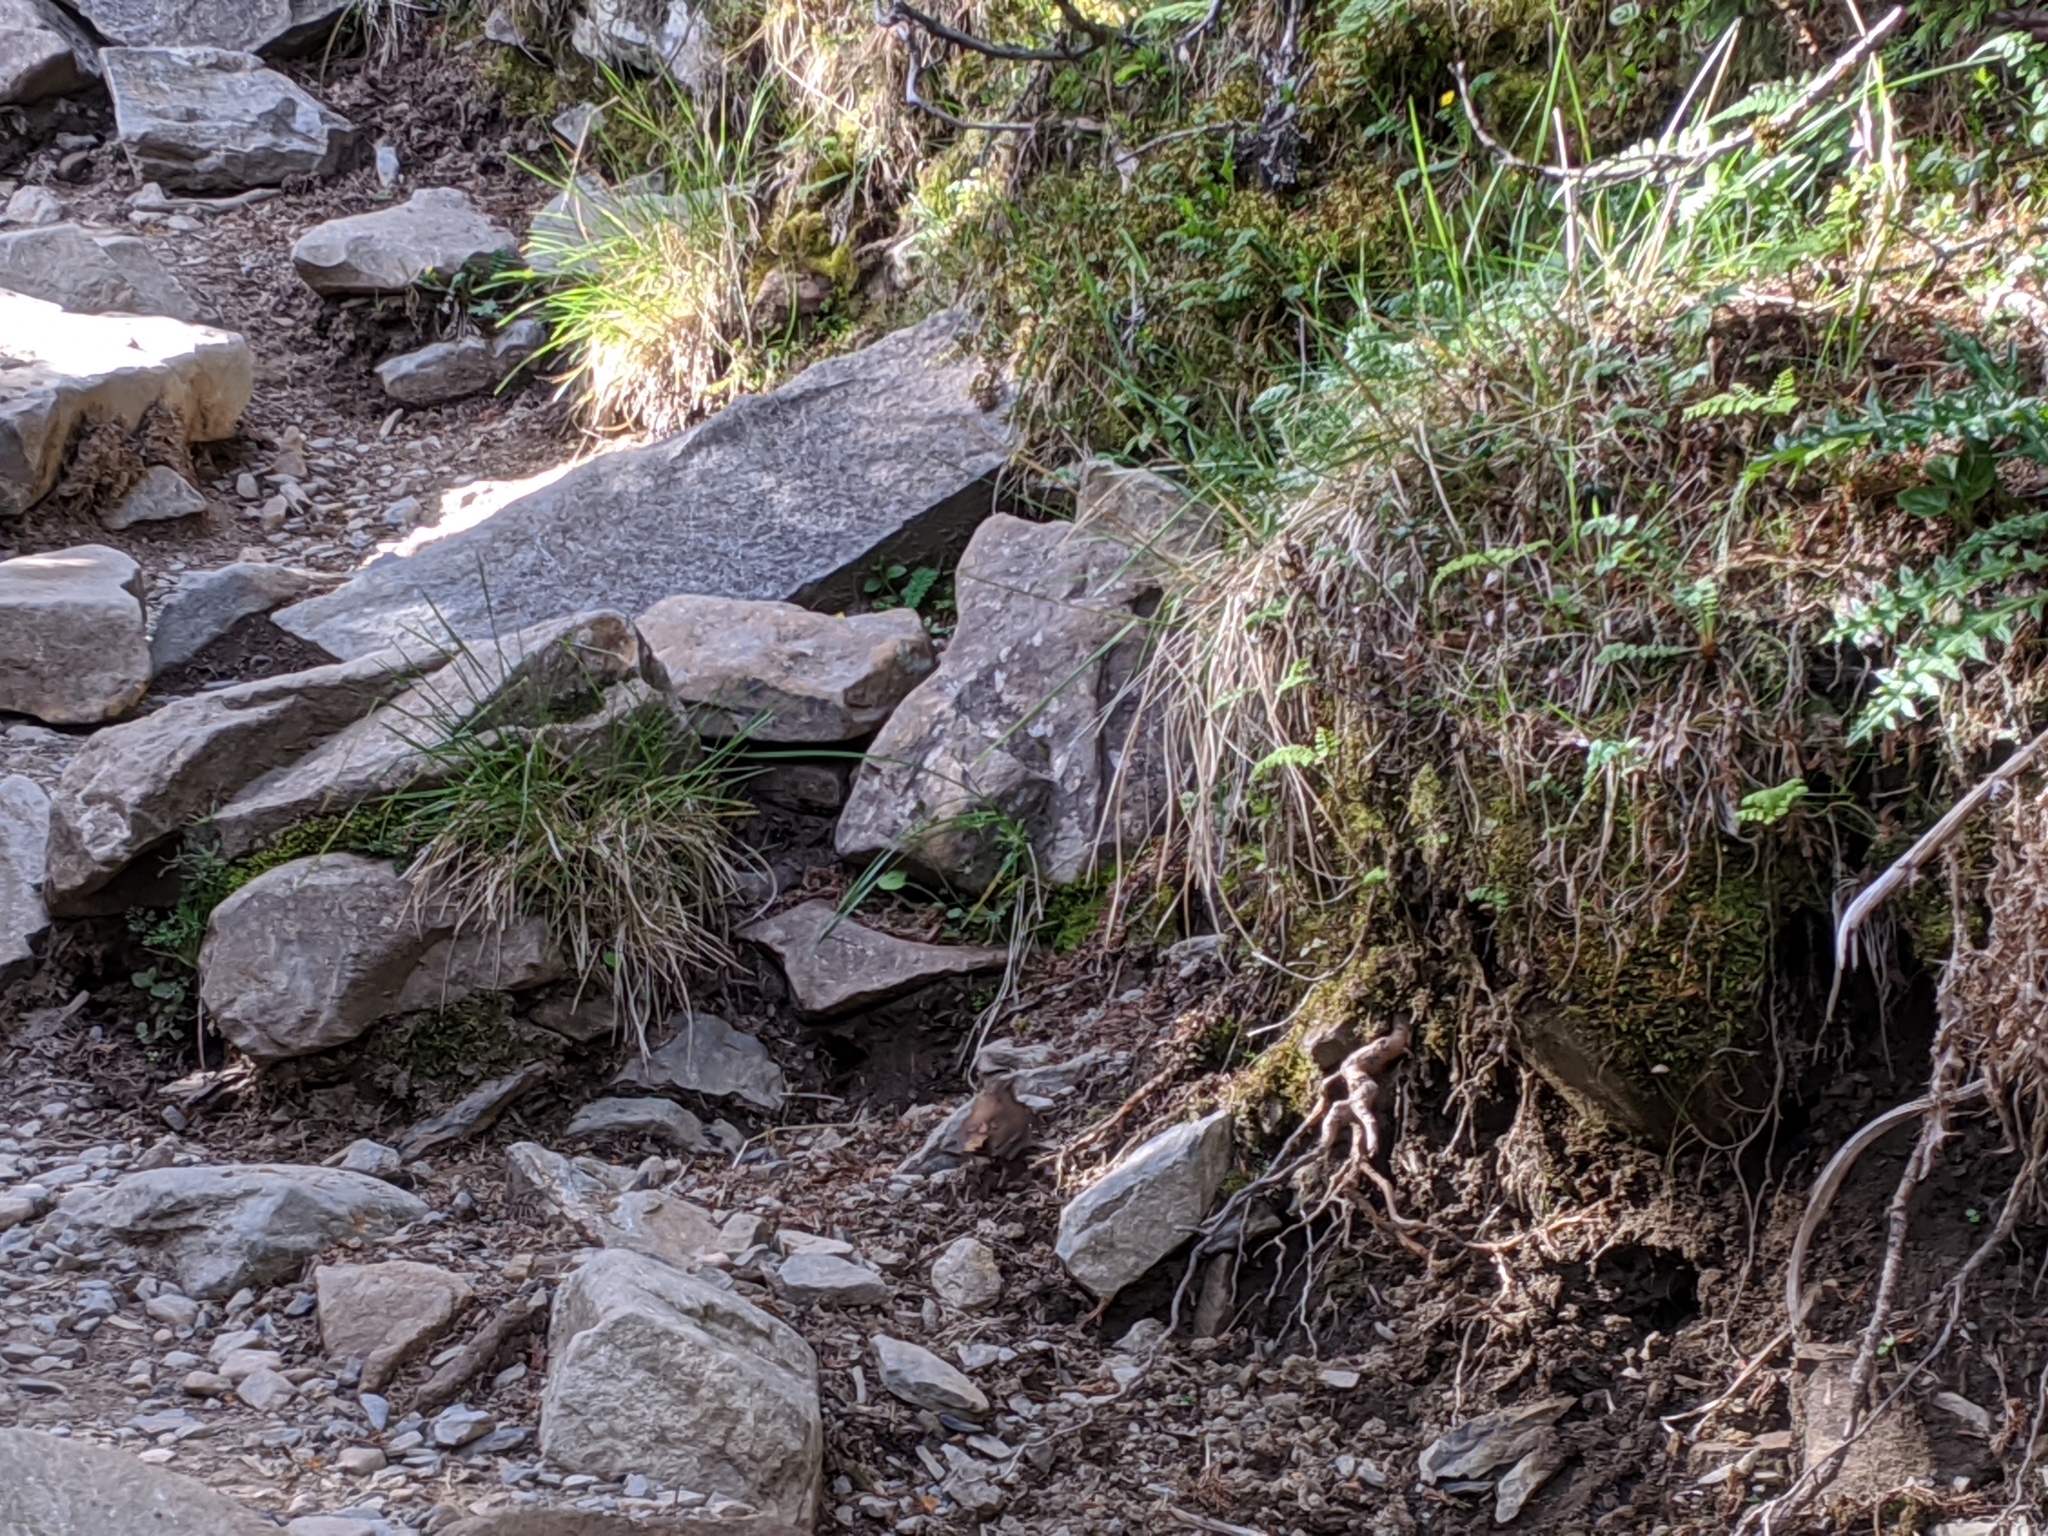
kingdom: Animalia
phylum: Chordata
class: Aves
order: Passeriformes
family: Troglodytidae
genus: Troglodytes
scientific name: Troglodytes troglodytes
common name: Eurasian wren
